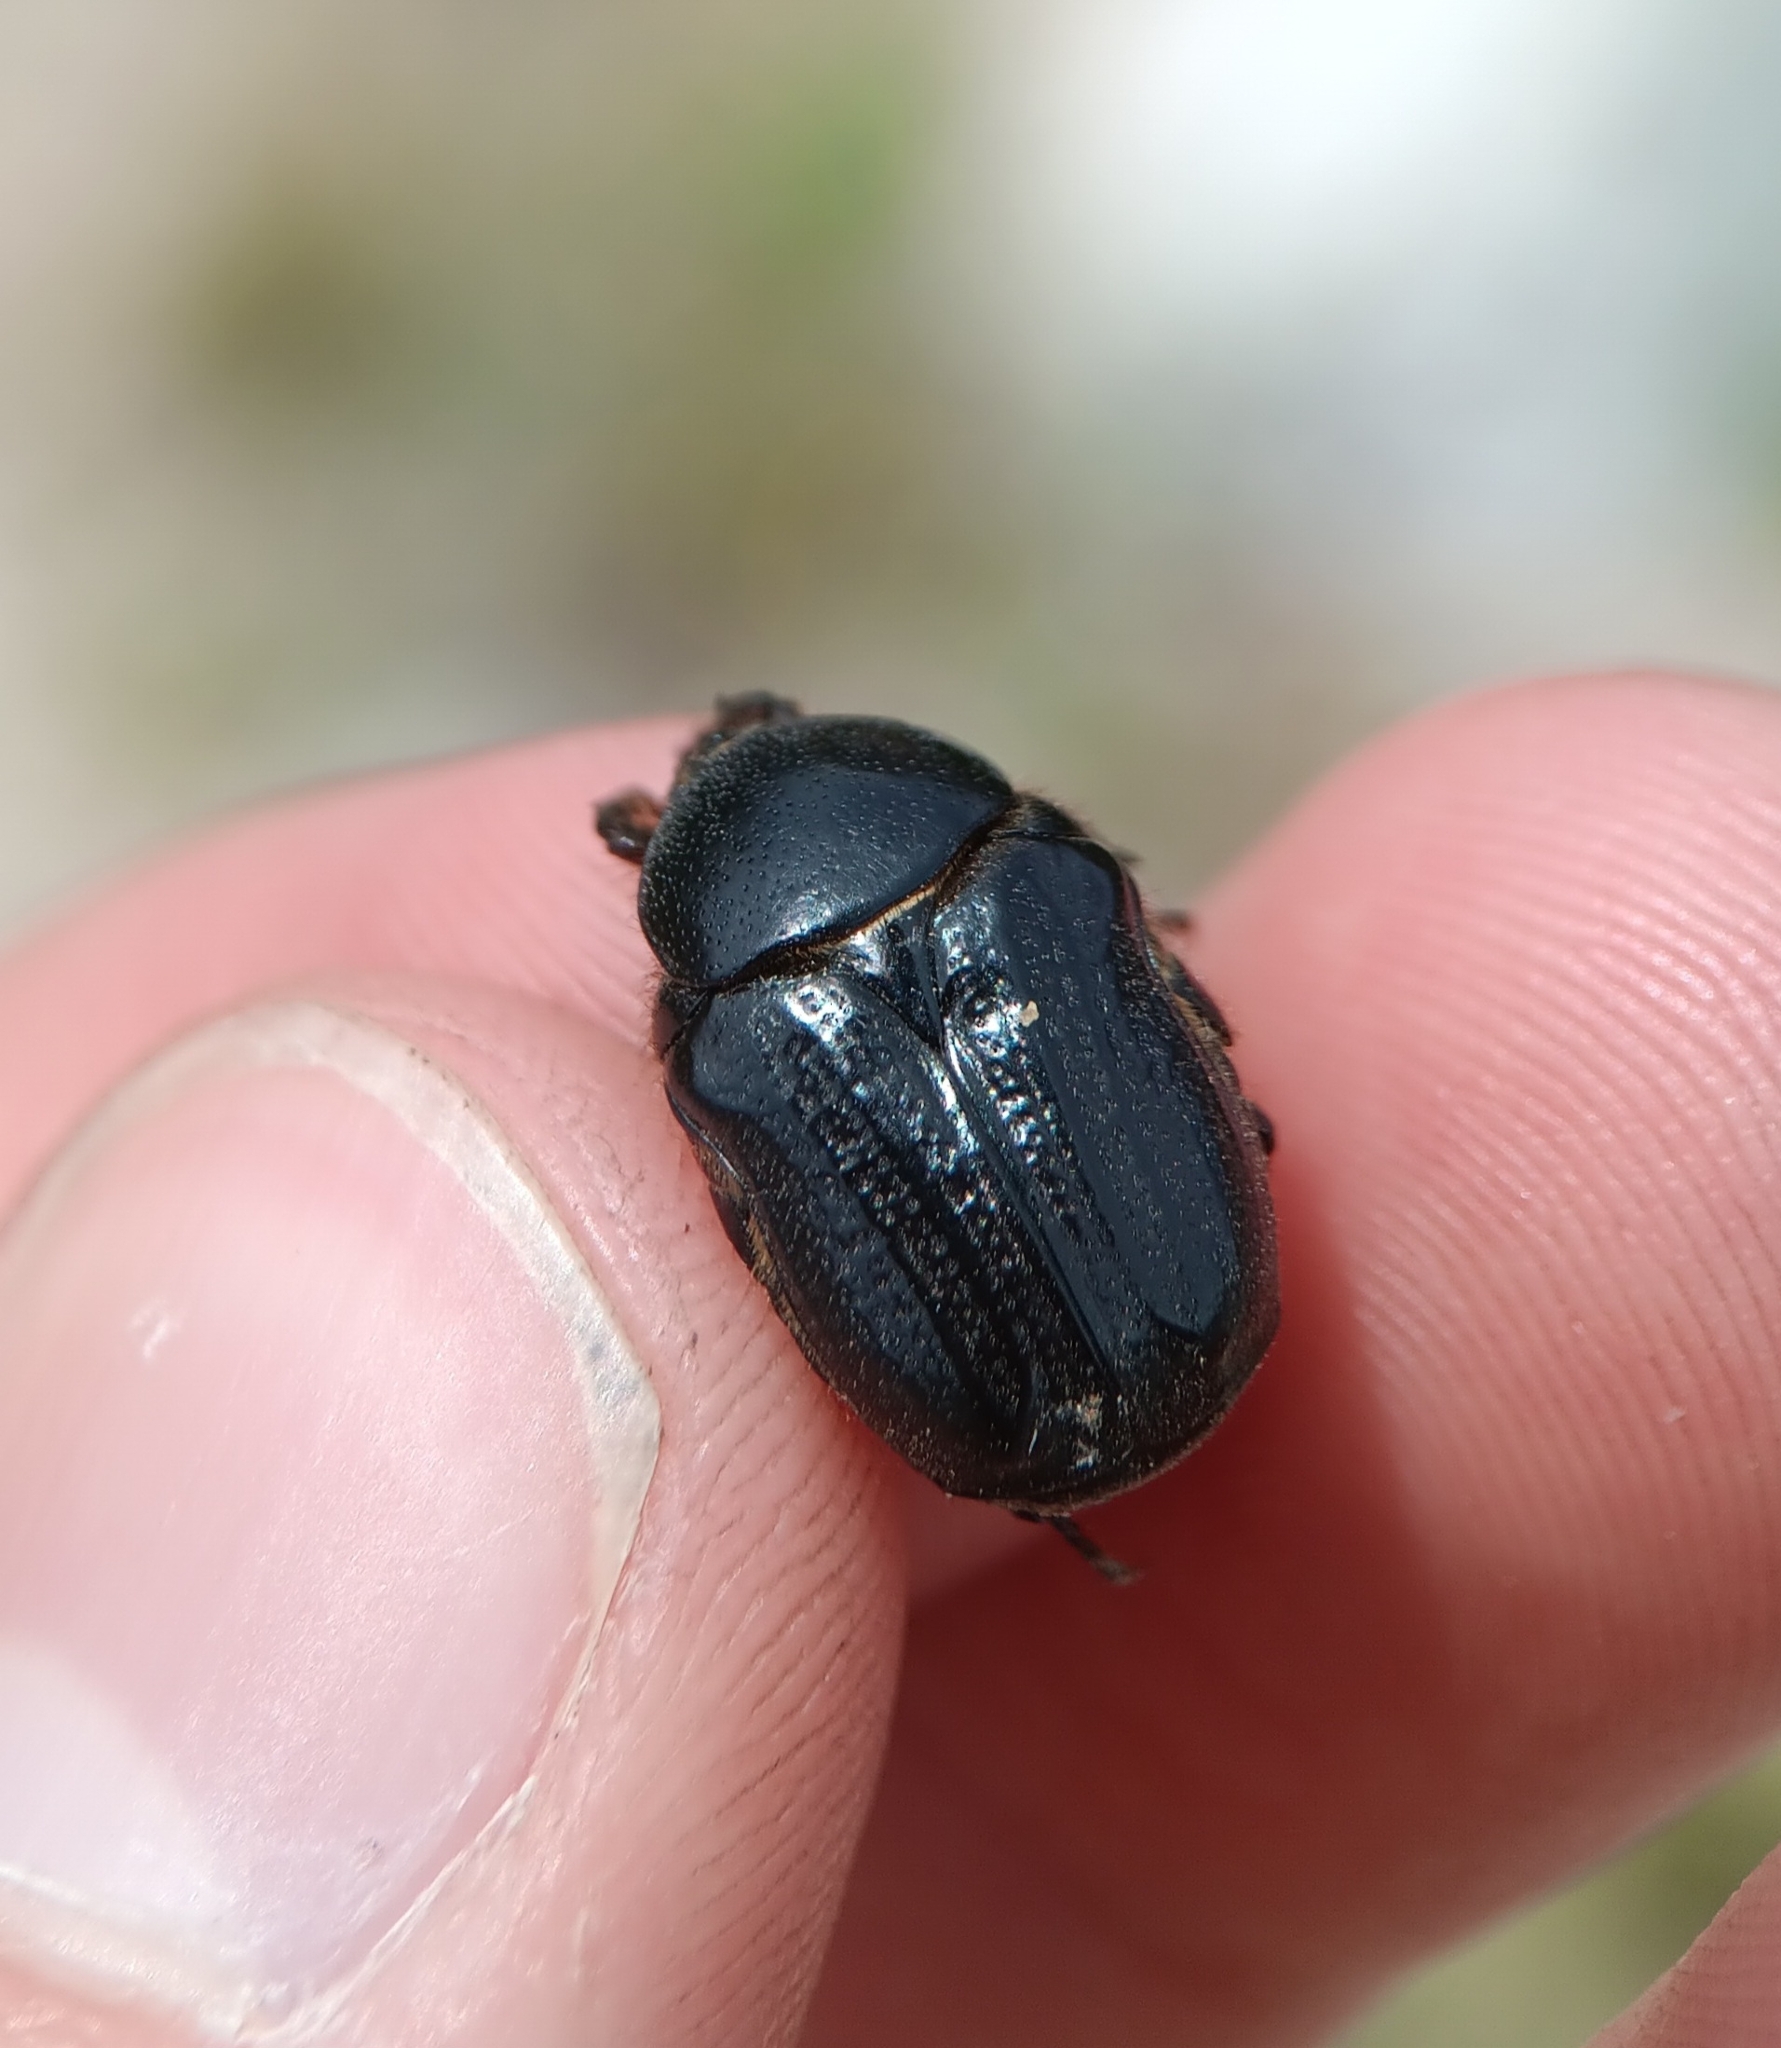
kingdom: Animalia
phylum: Arthropoda
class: Insecta
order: Coleoptera
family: Scarabaeidae
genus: Euphoria
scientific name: Euphoria verticalis
